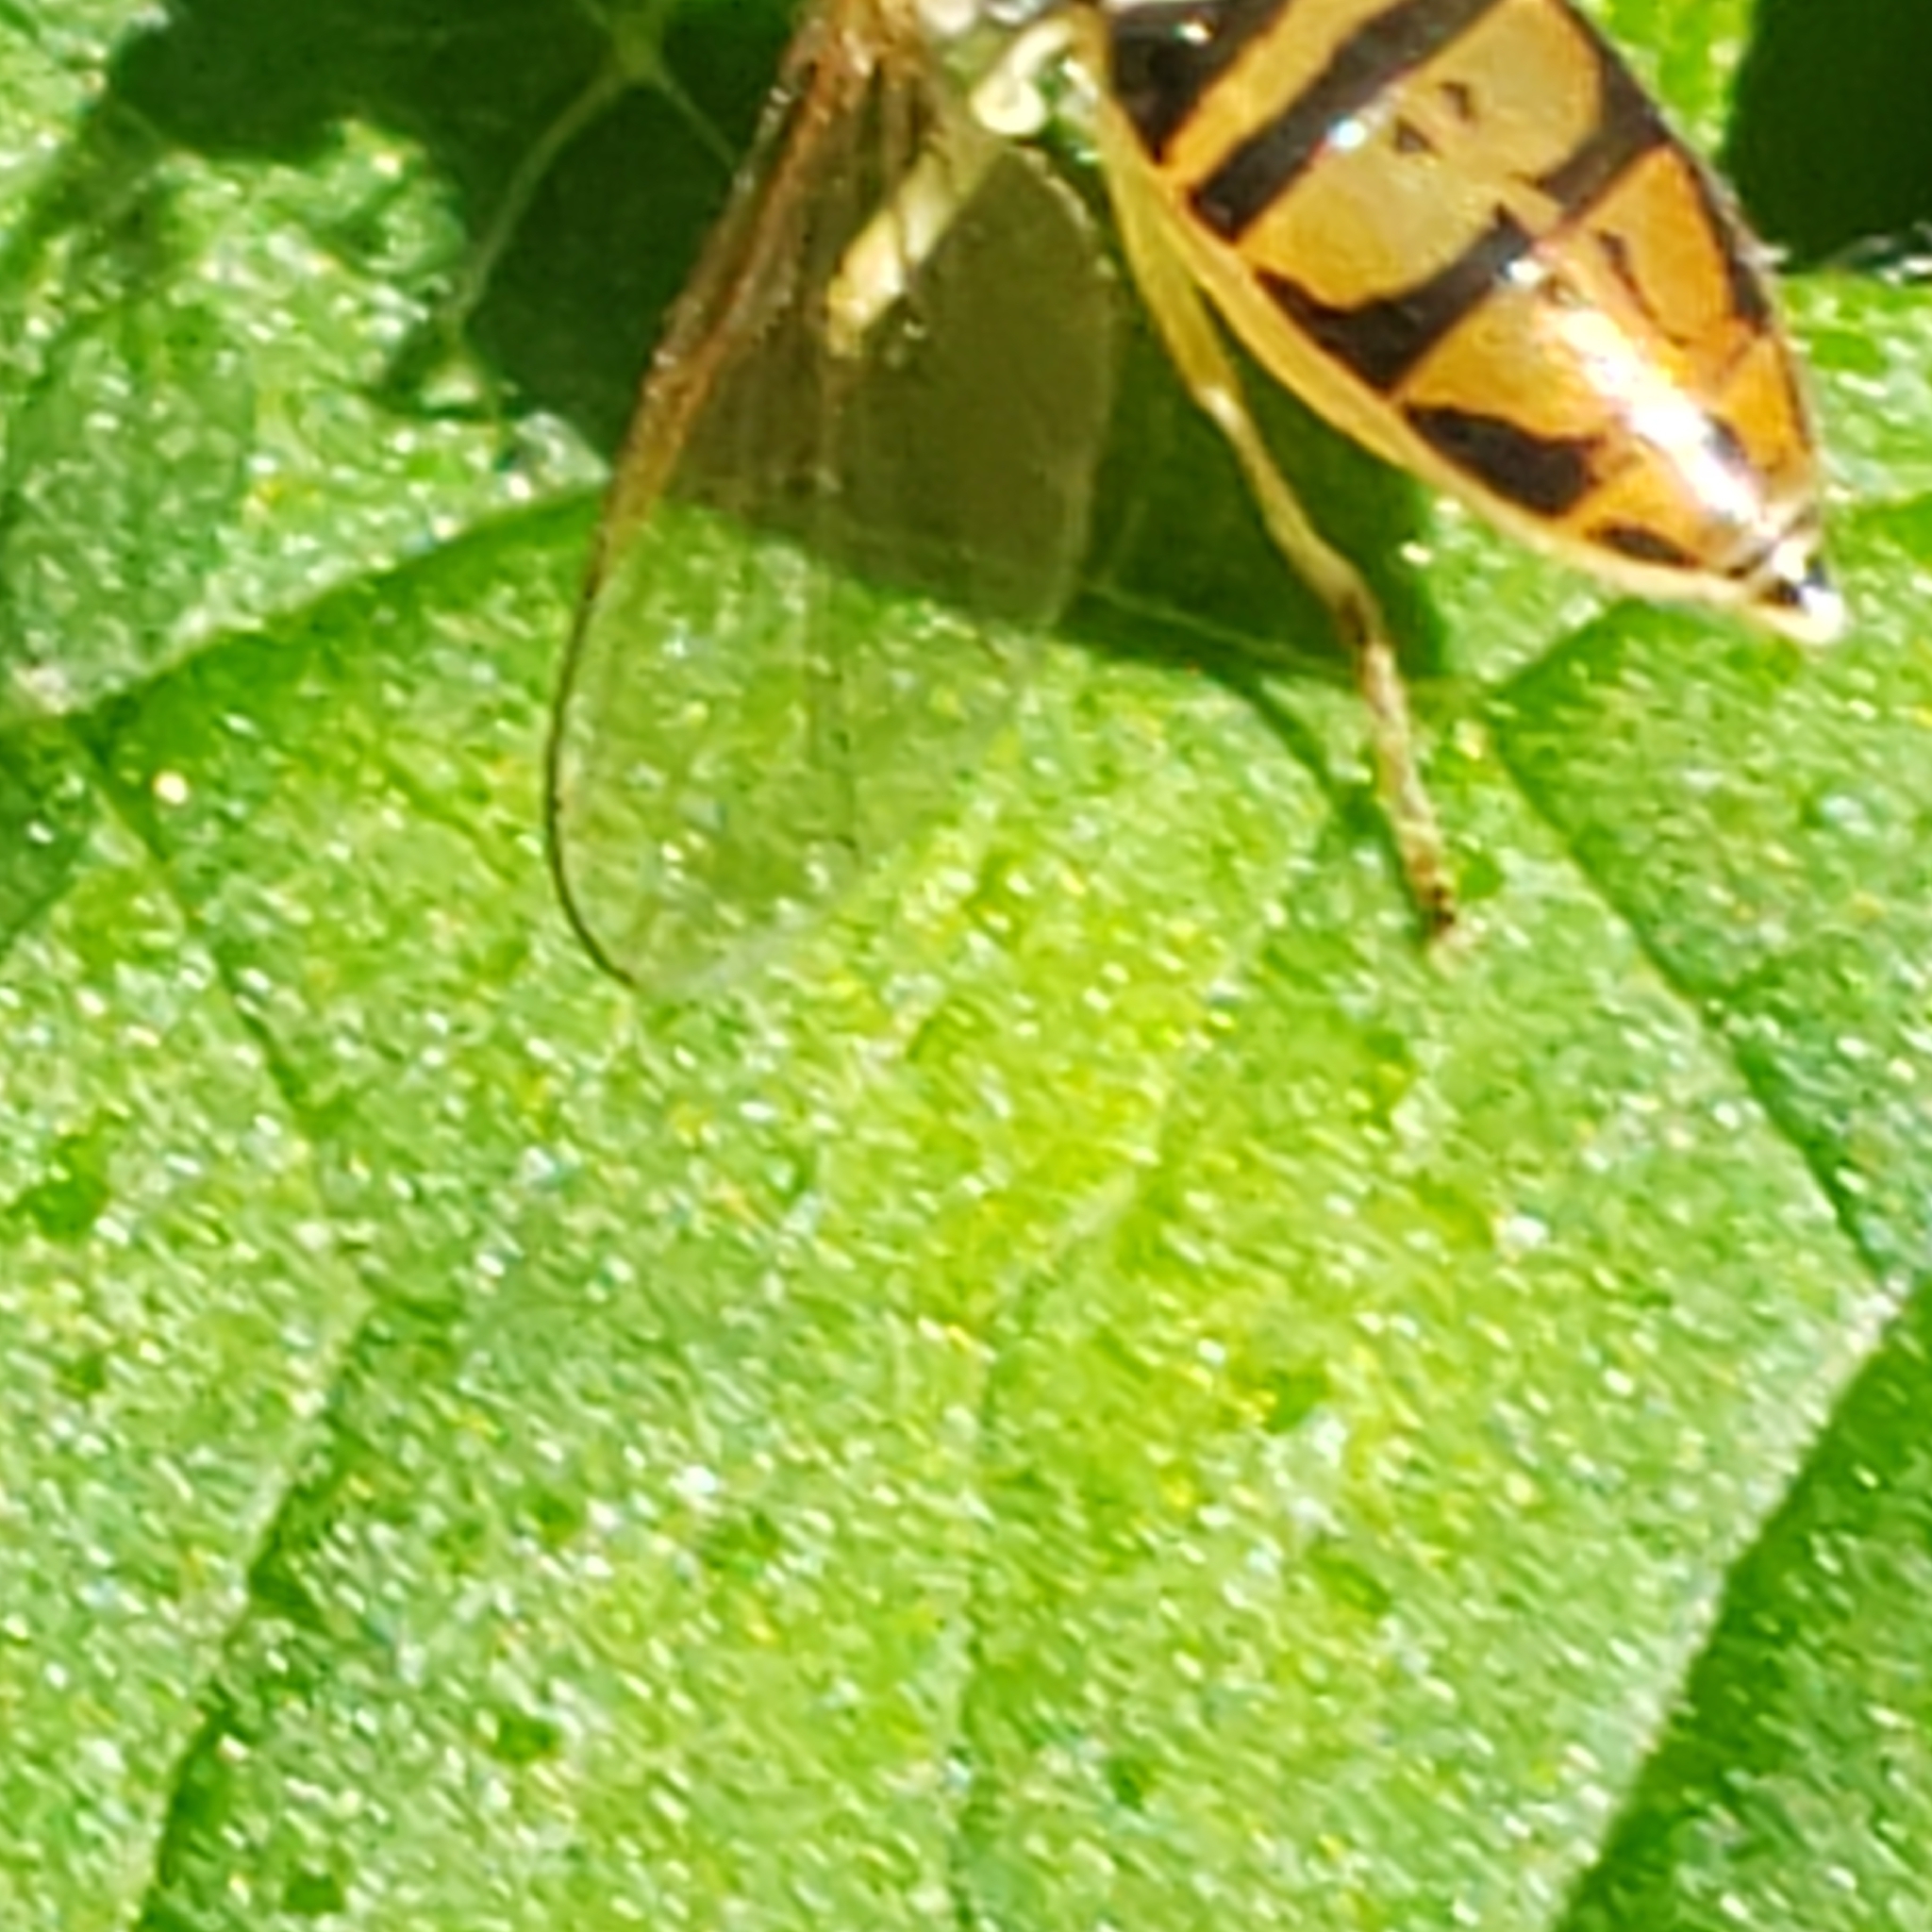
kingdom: Animalia
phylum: Arthropoda
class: Insecta
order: Diptera
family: Syrphidae
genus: Toxomerus
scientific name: Toxomerus marginatus
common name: Syrphid fly
